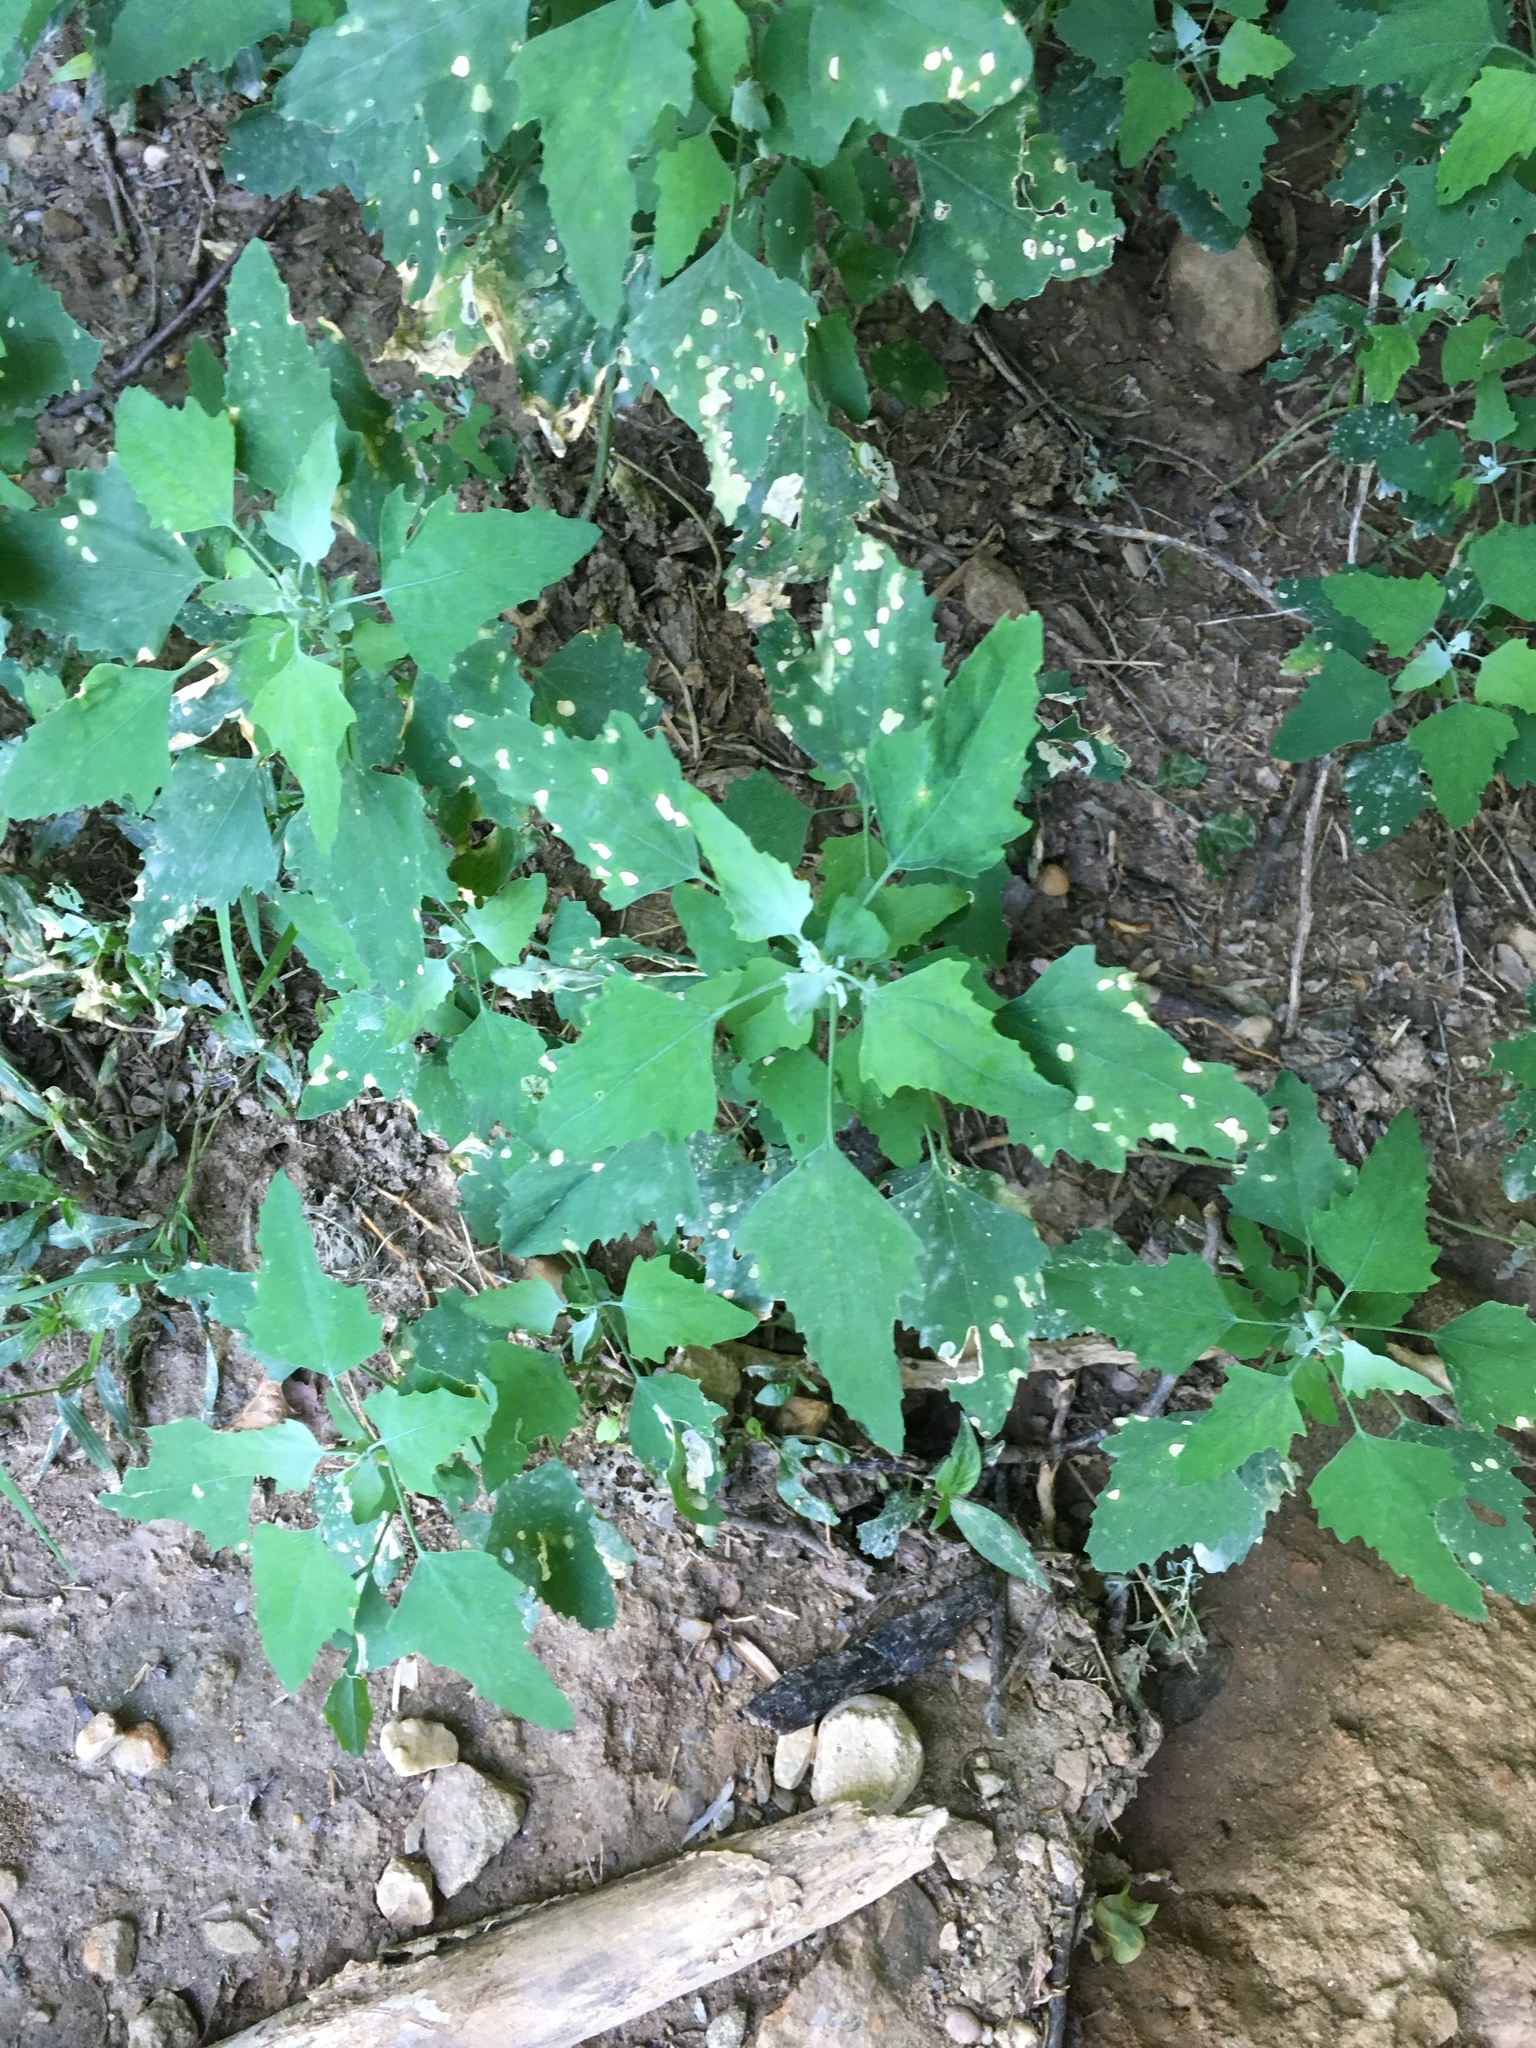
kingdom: Plantae
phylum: Tracheophyta
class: Magnoliopsida
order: Caryophyllales
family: Amaranthaceae
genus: Chenopodium
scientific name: Chenopodium album
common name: Fat-hen
